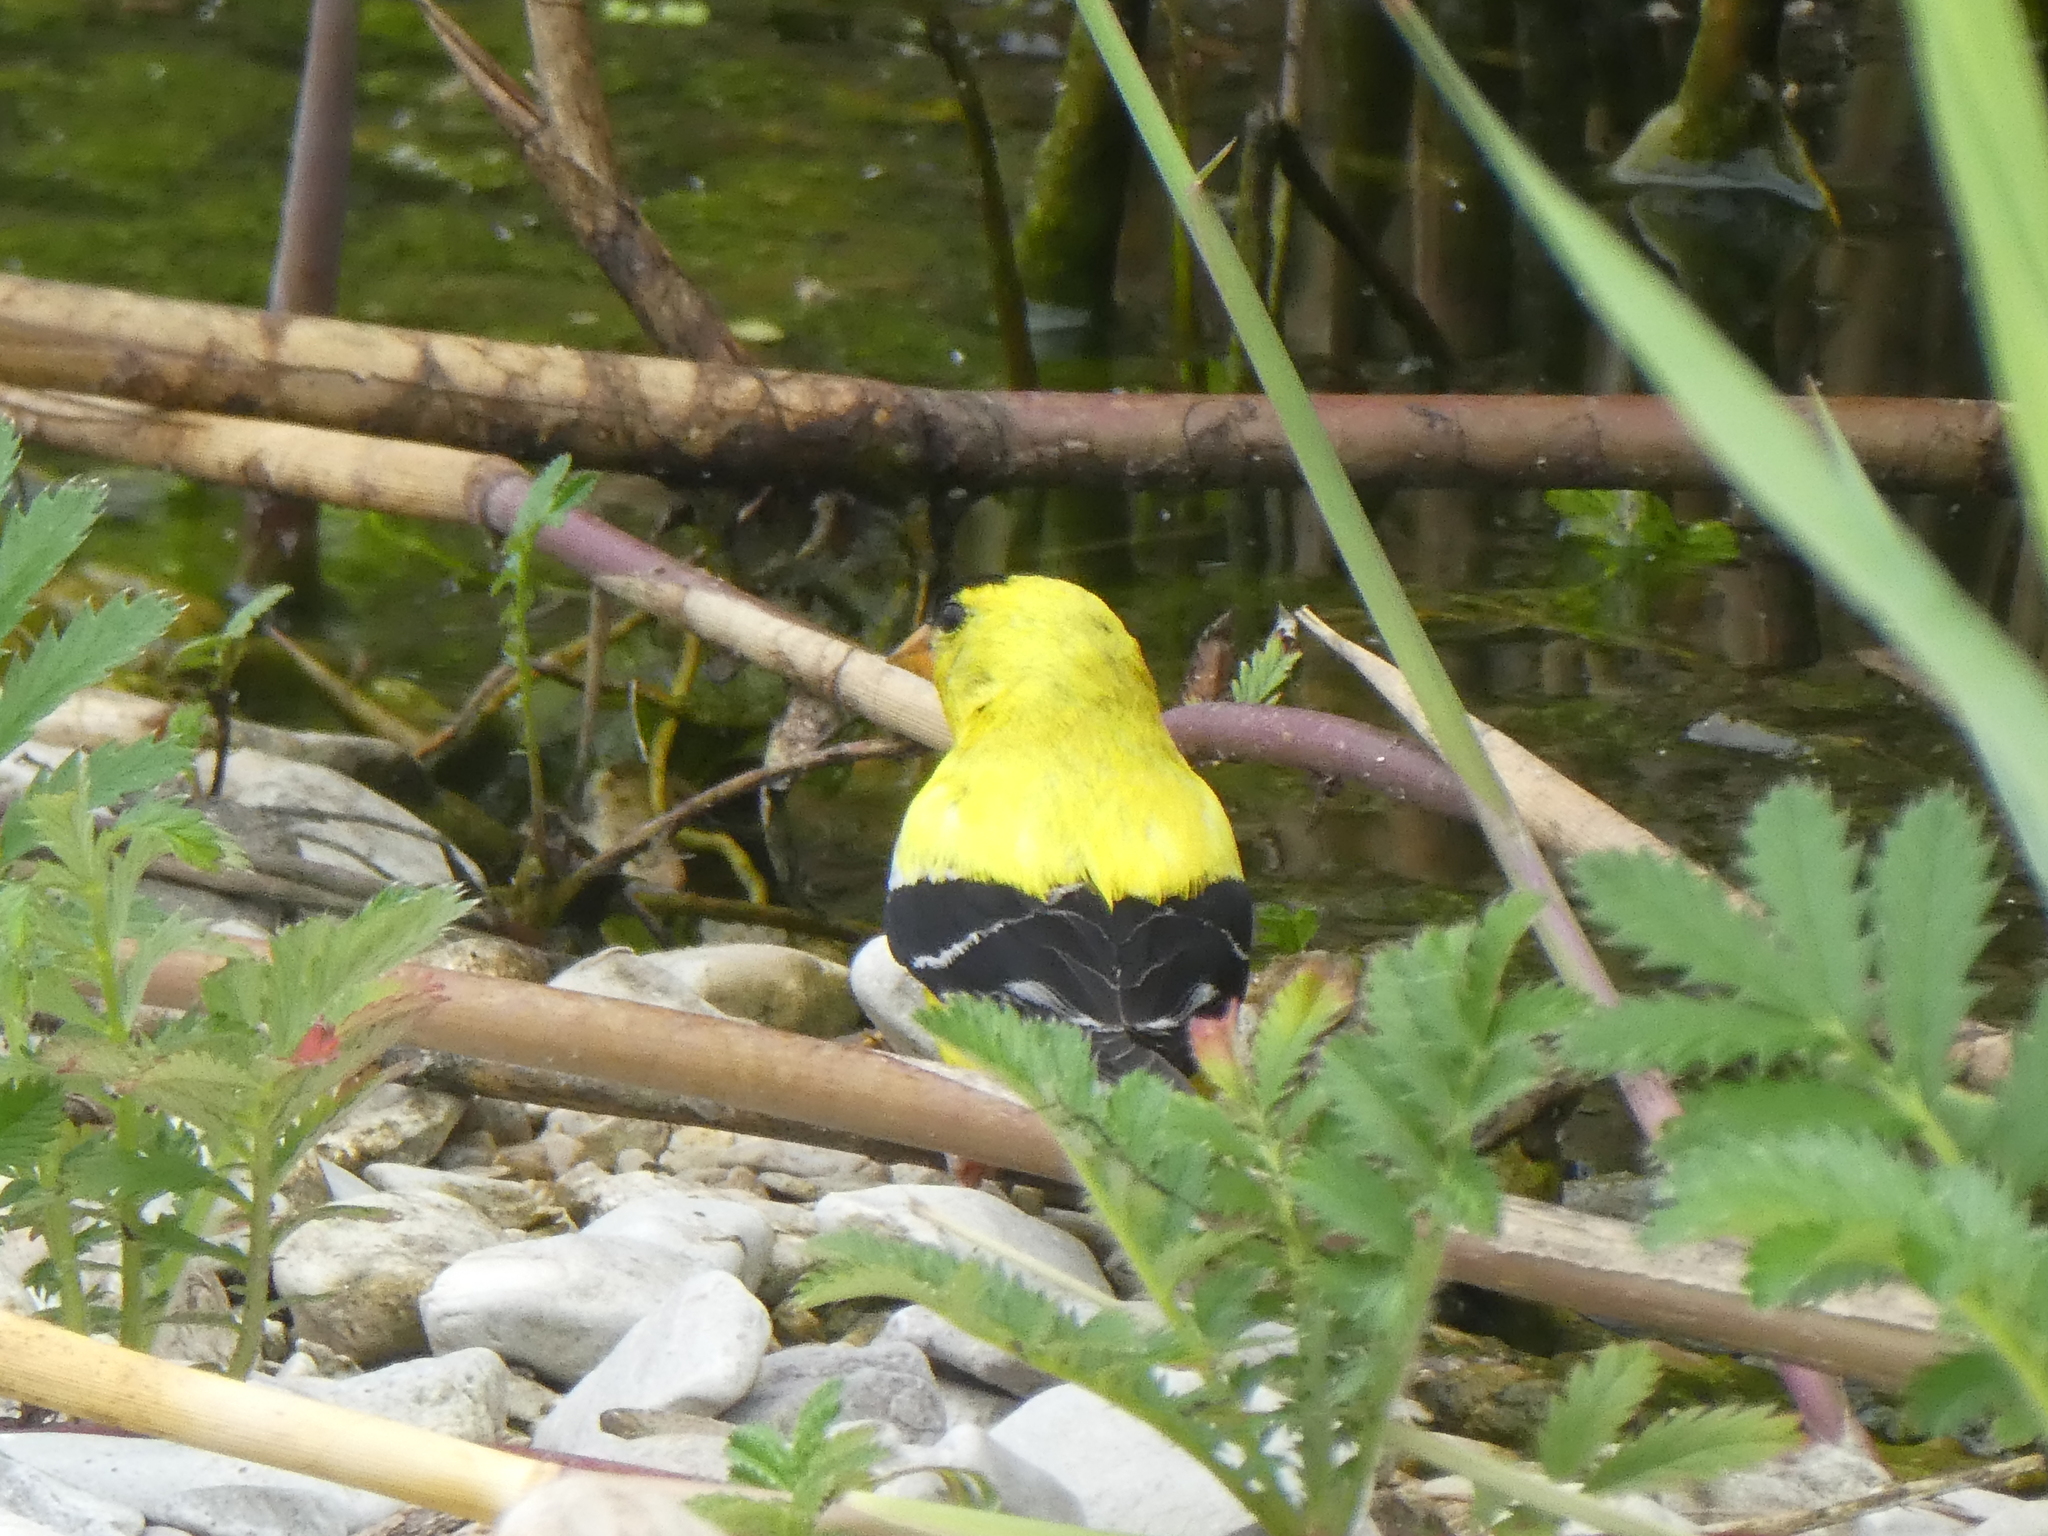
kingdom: Animalia
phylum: Chordata
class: Aves
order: Passeriformes
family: Fringillidae
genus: Spinus
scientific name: Spinus tristis
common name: American goldfinch
